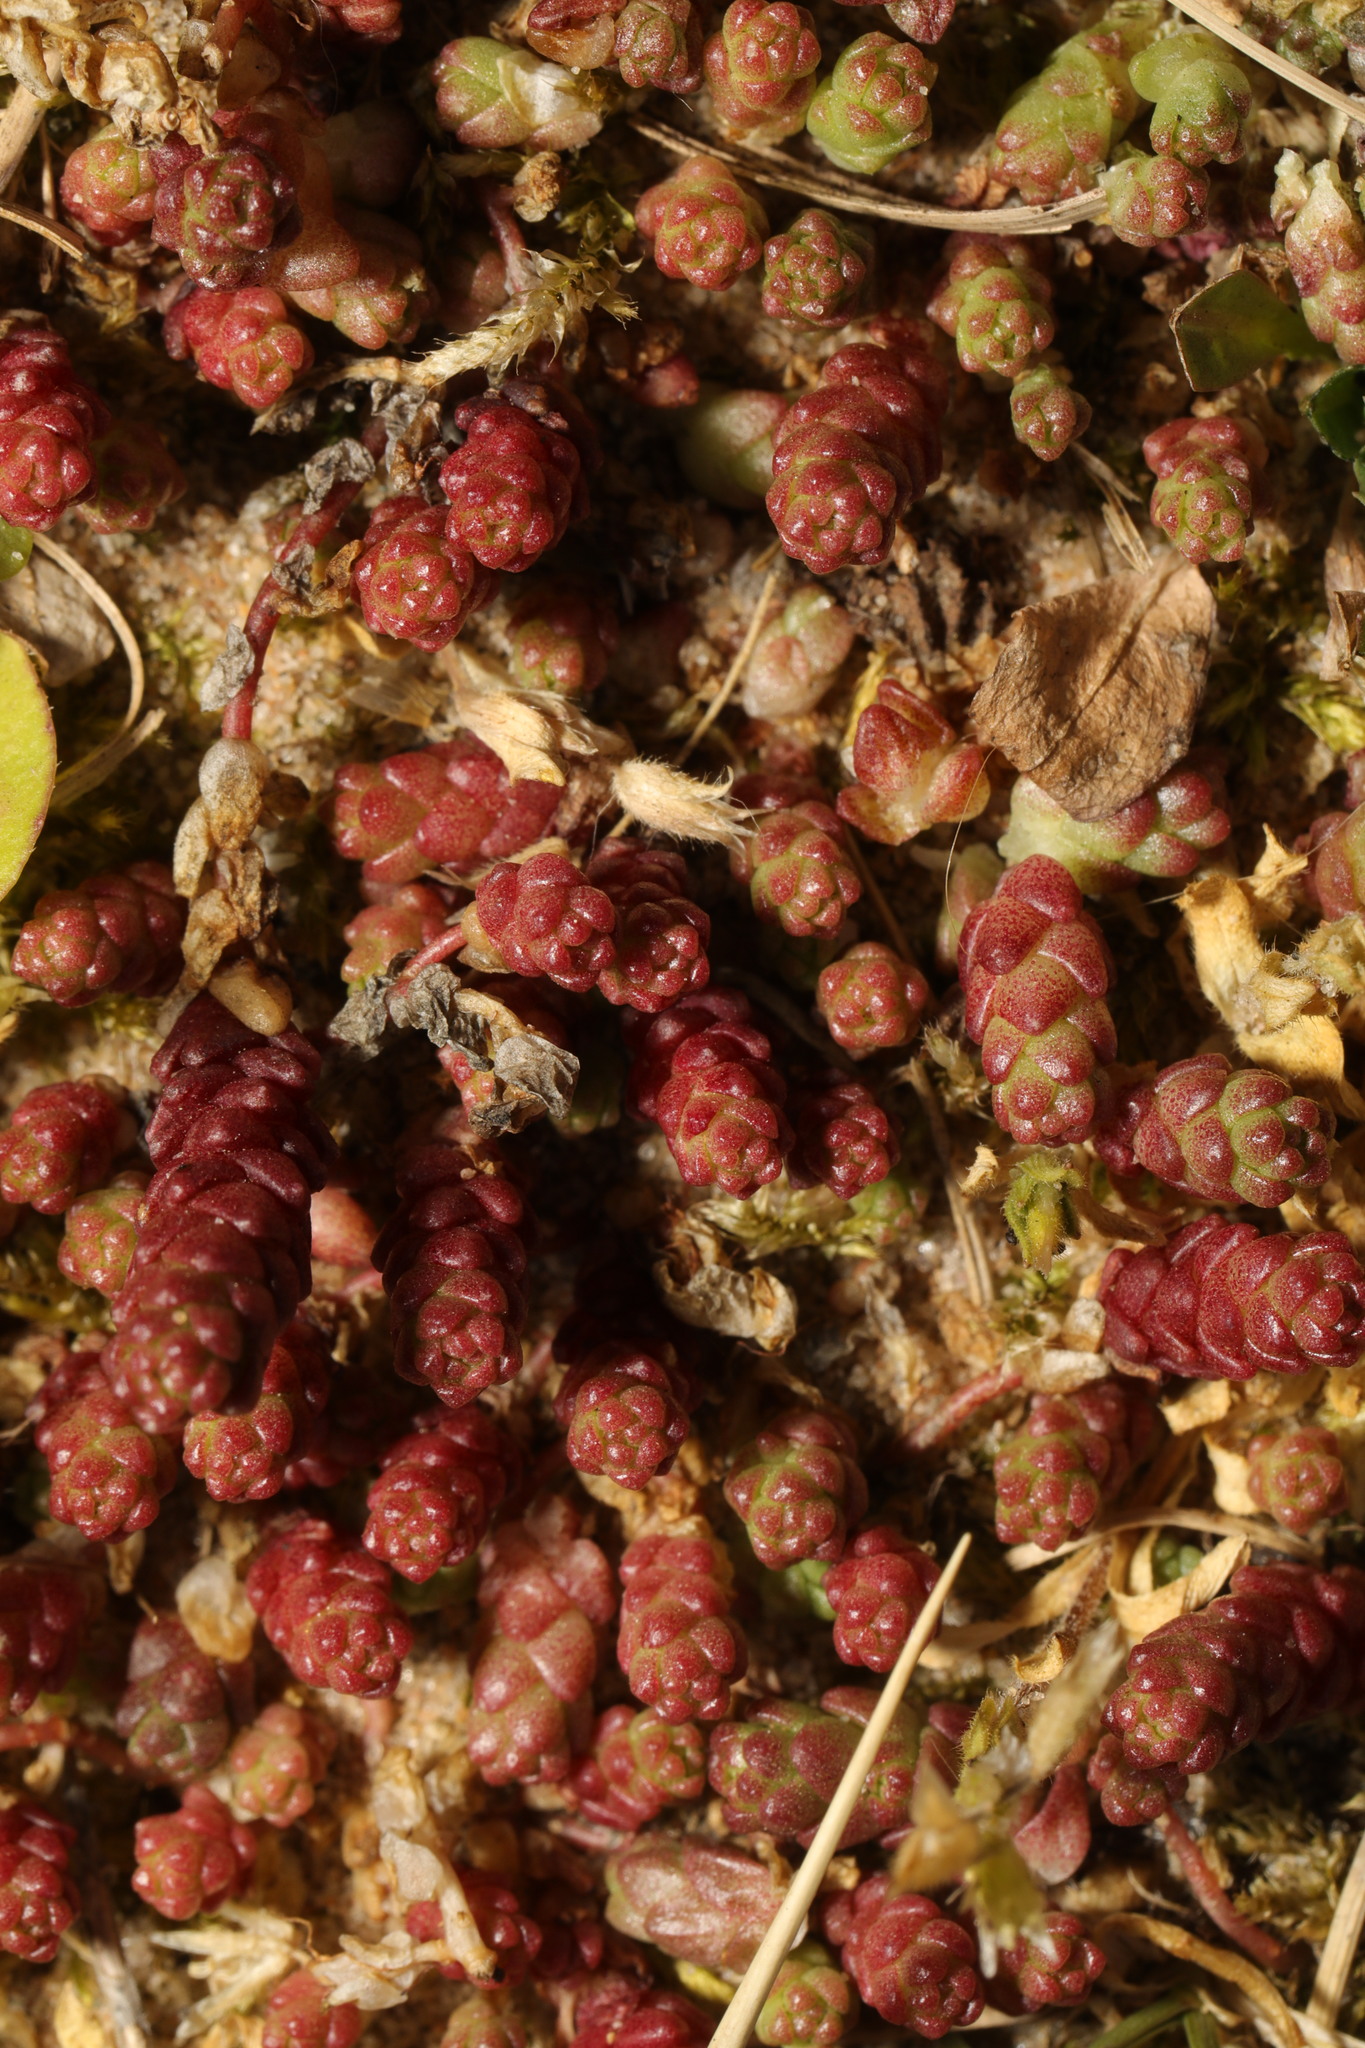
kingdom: Plantae
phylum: Tracheophyta
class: Magnoliopsida
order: Saxifragales
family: Crassulaceae
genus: Sedum
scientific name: Sedum acre
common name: Biting stonecrop
